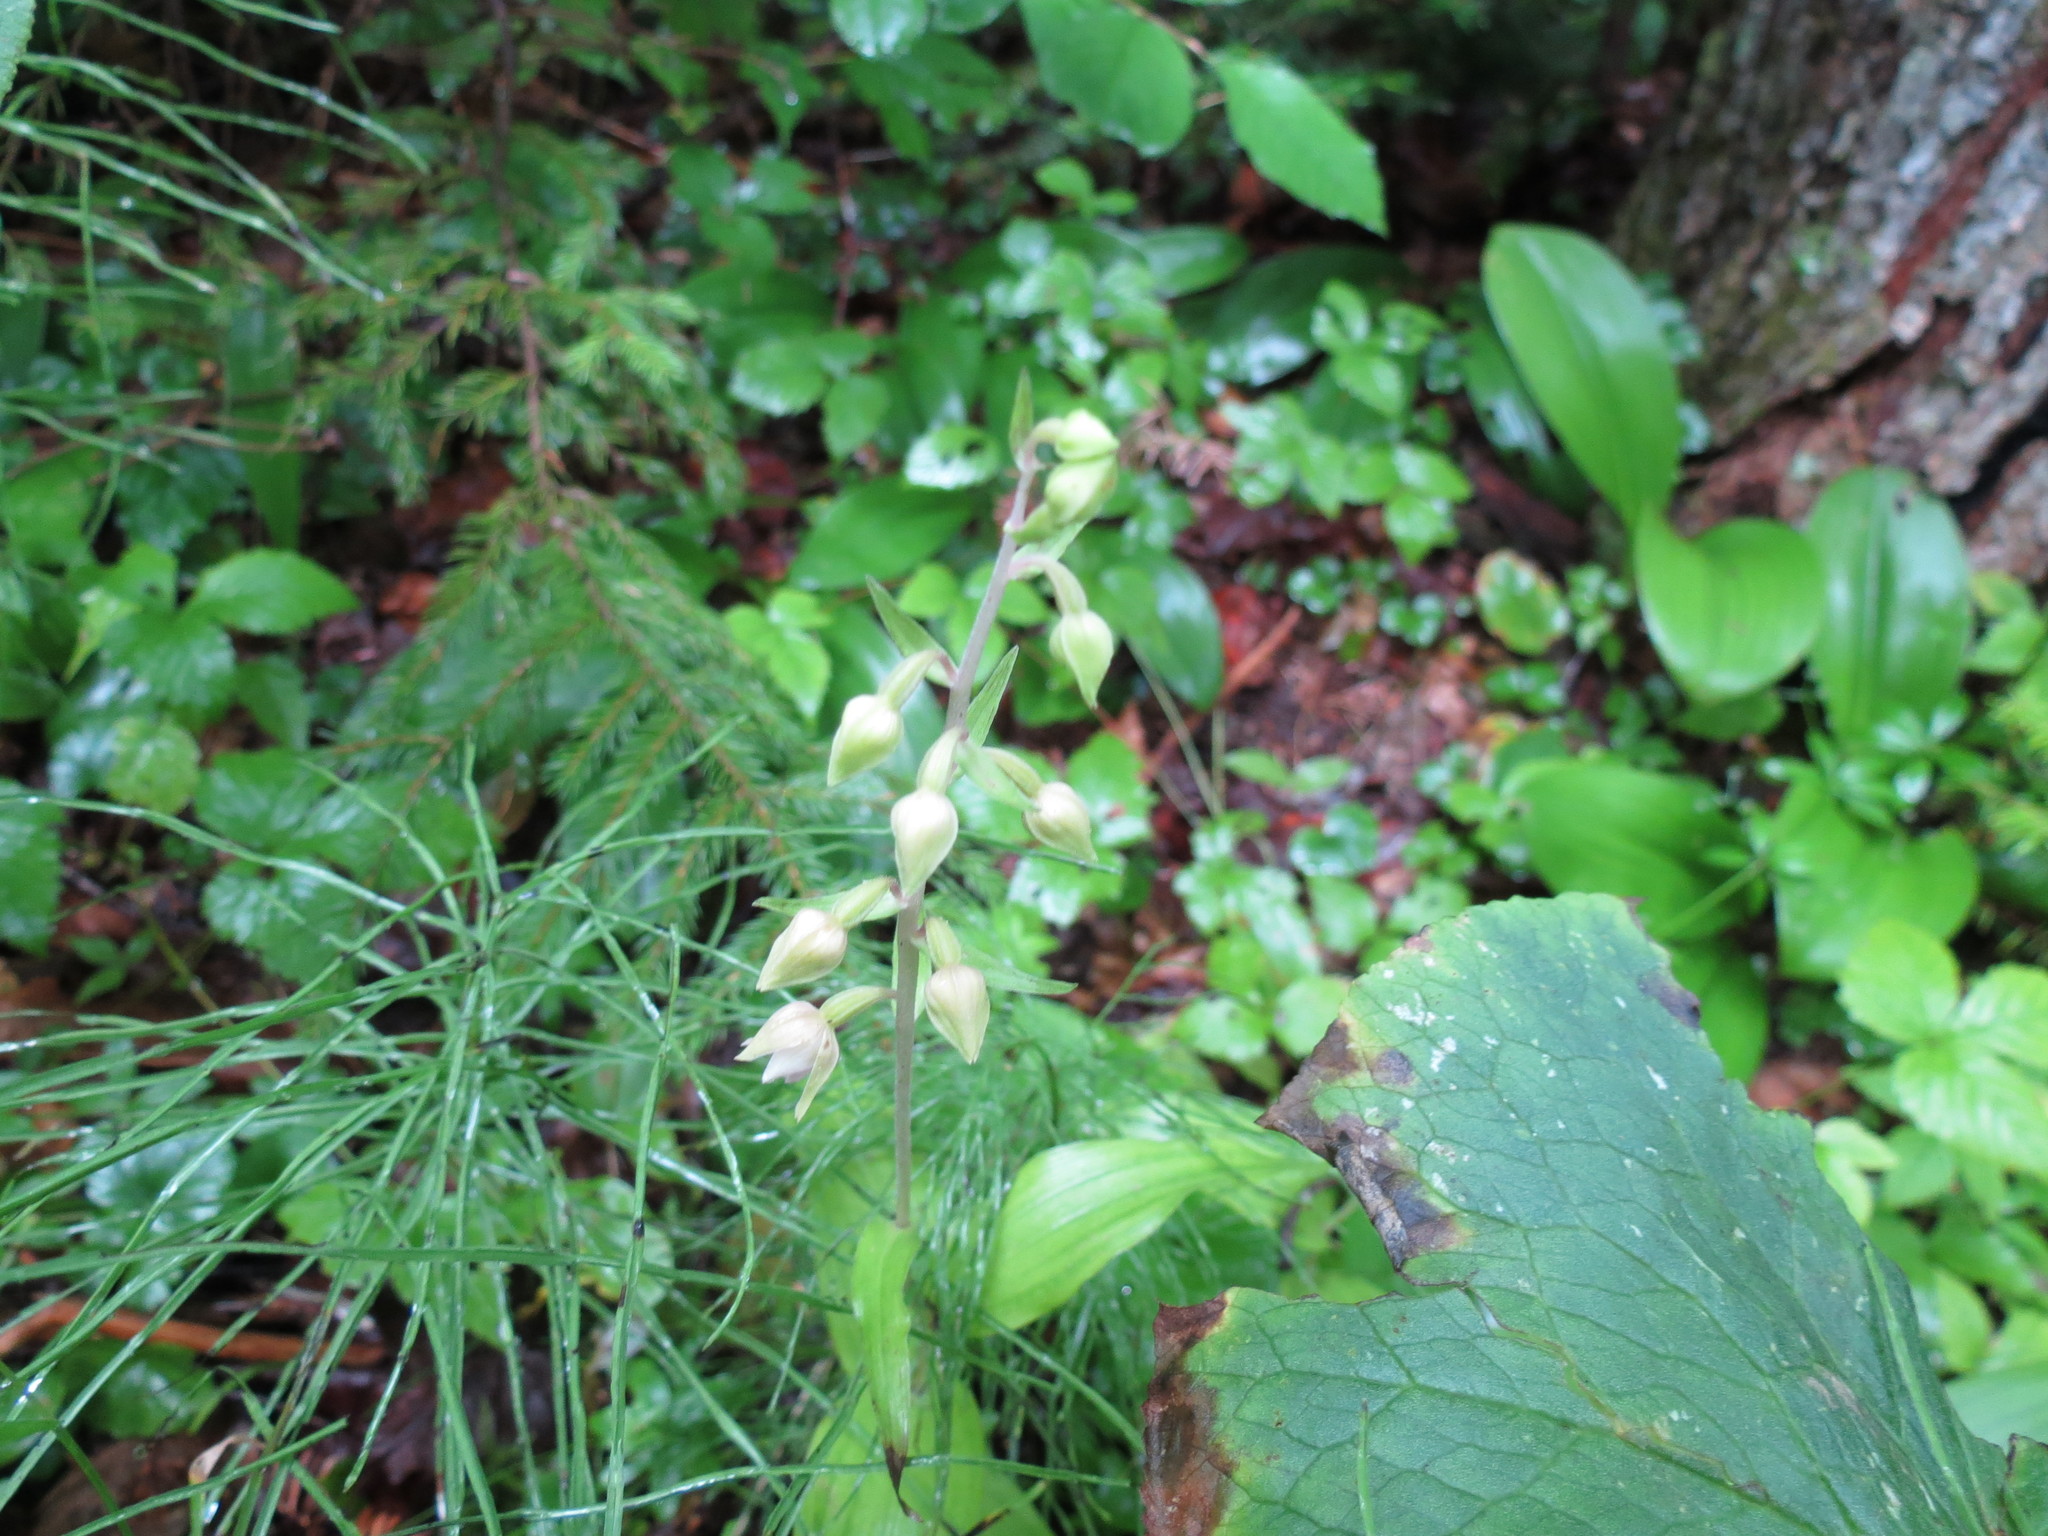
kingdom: Plantae
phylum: Tracheophyta
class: Liliopsida
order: Asparagales
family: Orchidaceae
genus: Epipactis
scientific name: Epipactis helleborine
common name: Broad-leaved helleborine
